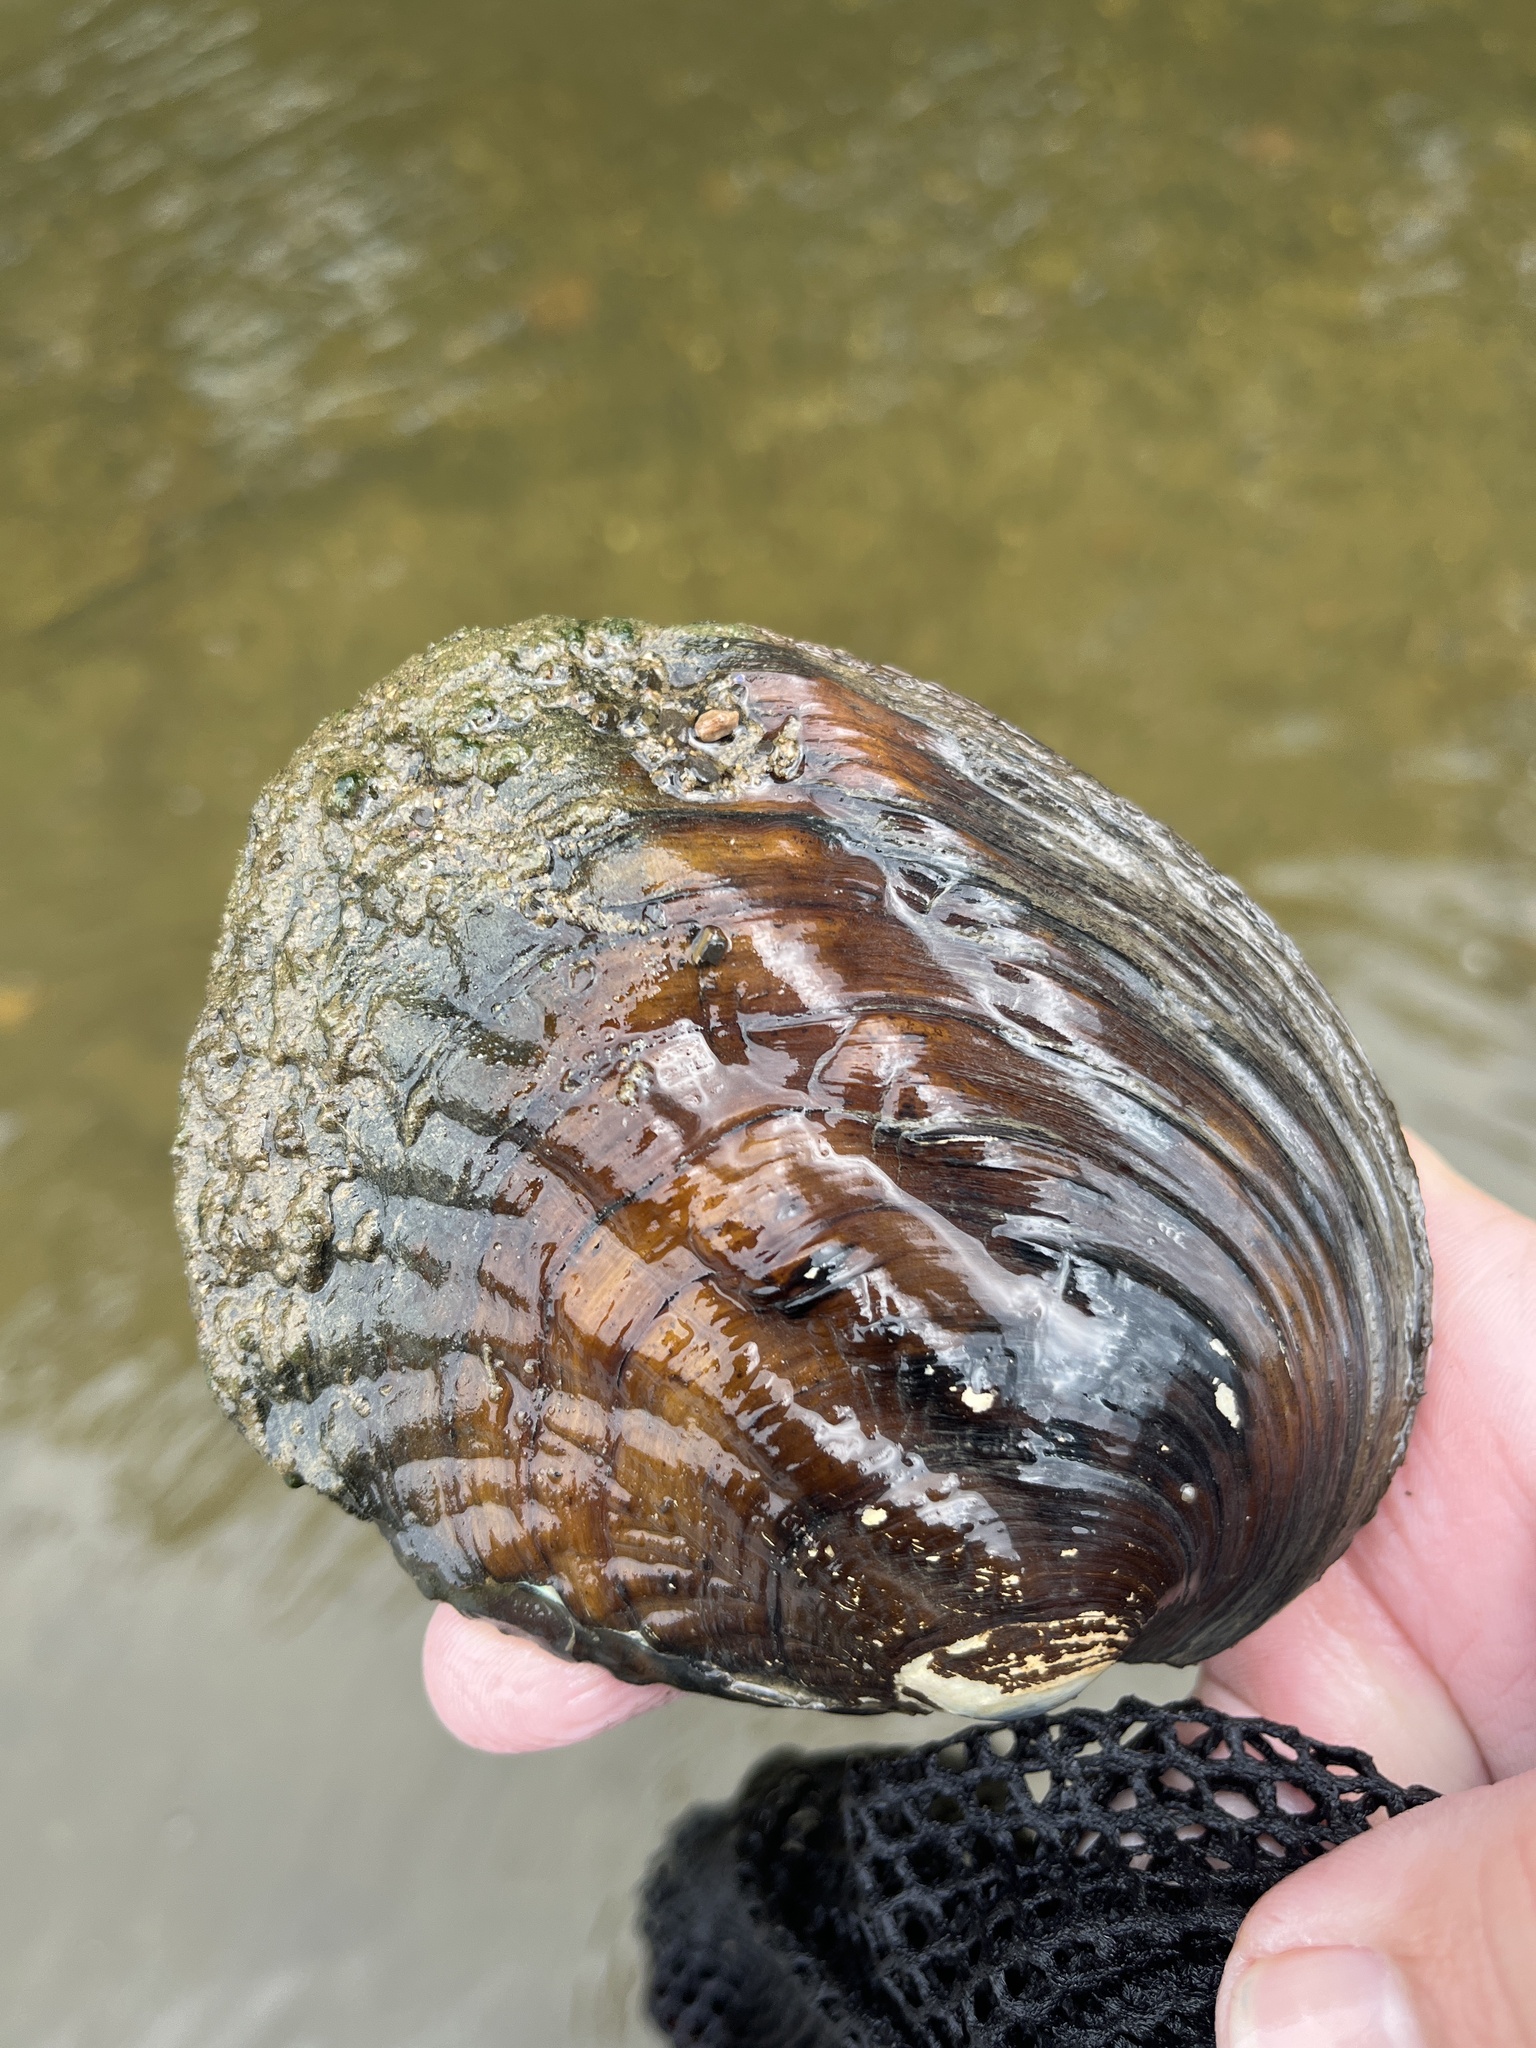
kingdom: Animalia
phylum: Mollusca
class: Bivalvia
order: Unionida
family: Unionidae
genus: Amblema
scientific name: Amblema plicata
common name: Threeridge
